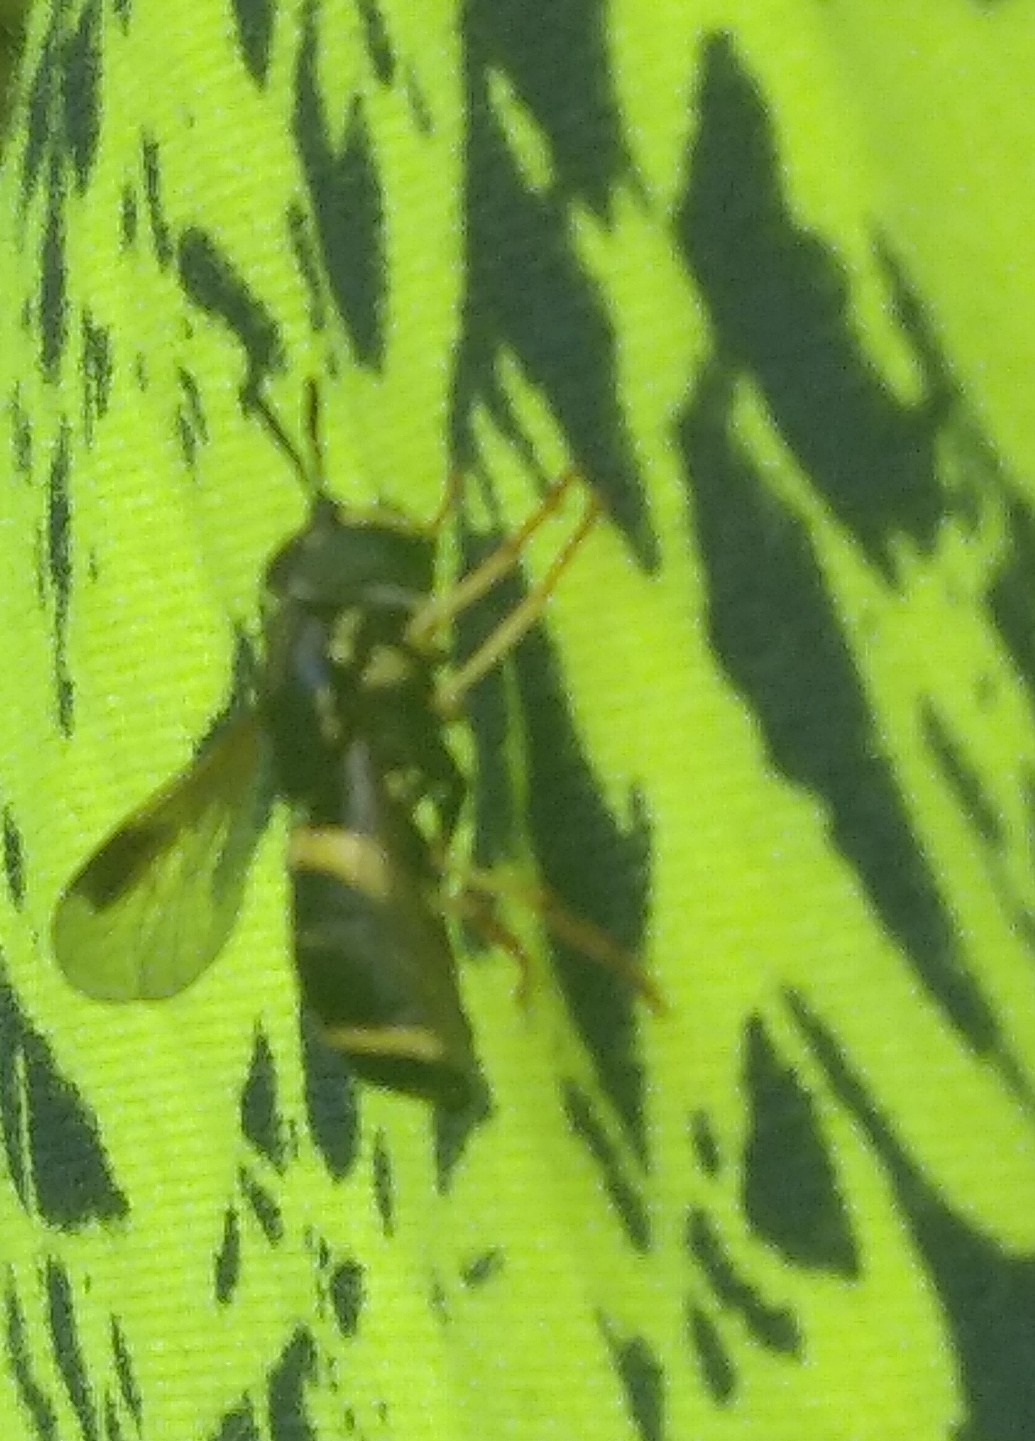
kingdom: Animalia
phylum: Arthropoda
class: Insecta
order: Diptera
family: Syrphidae
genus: Chrysotoxum
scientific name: Chrysotoxum bicincta
